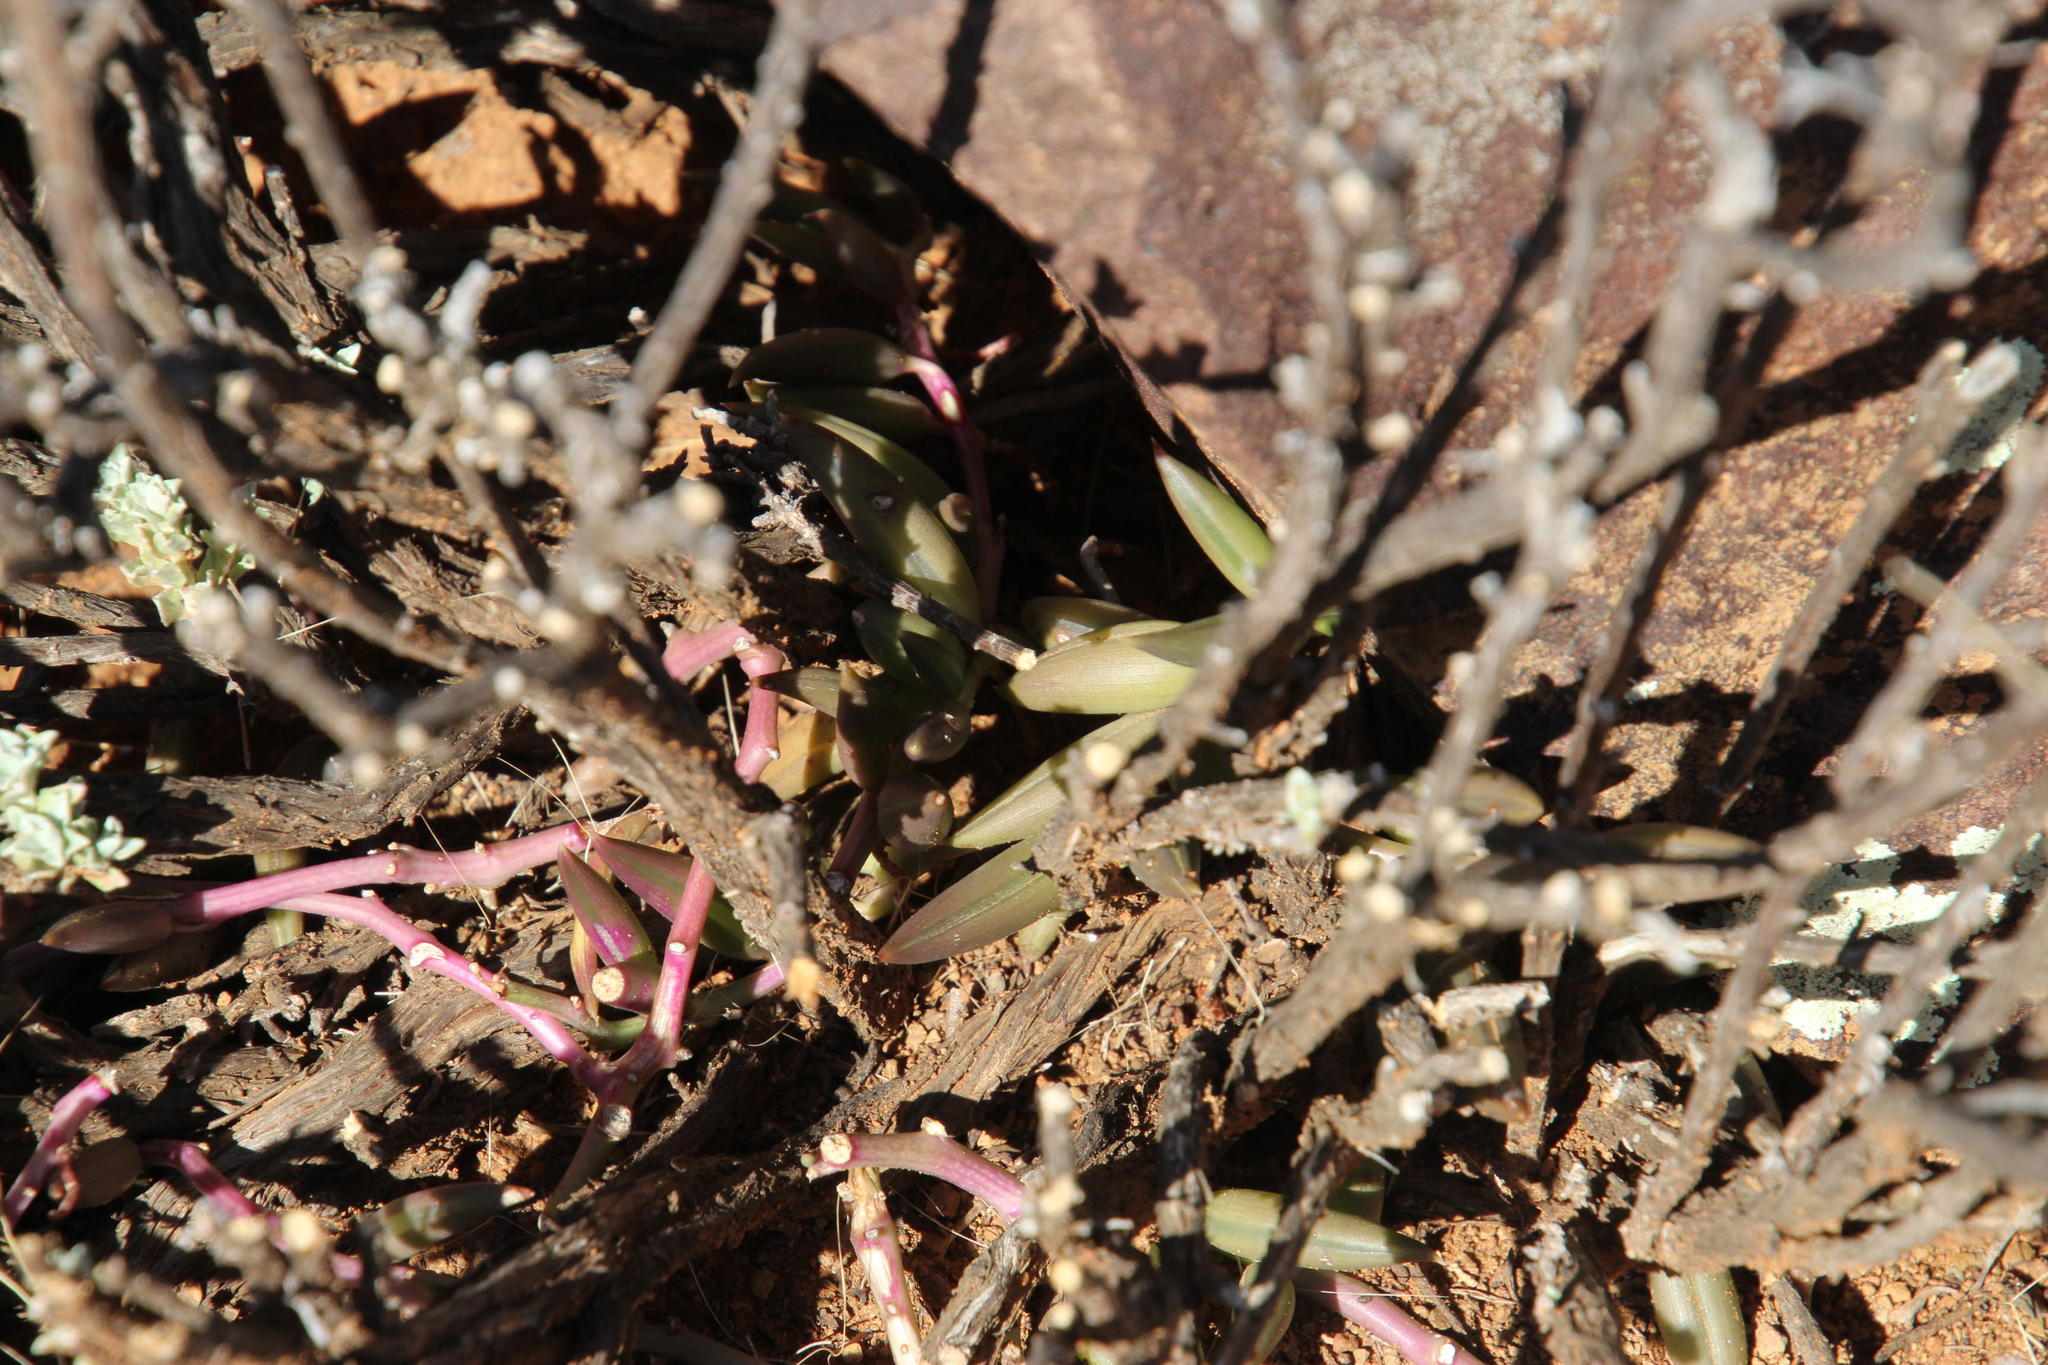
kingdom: Plantae
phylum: Tracheophyta
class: Magnoliopsida
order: Asterales
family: Asteraceae
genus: Curio
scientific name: Curio radicans
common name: Creeping-berry
